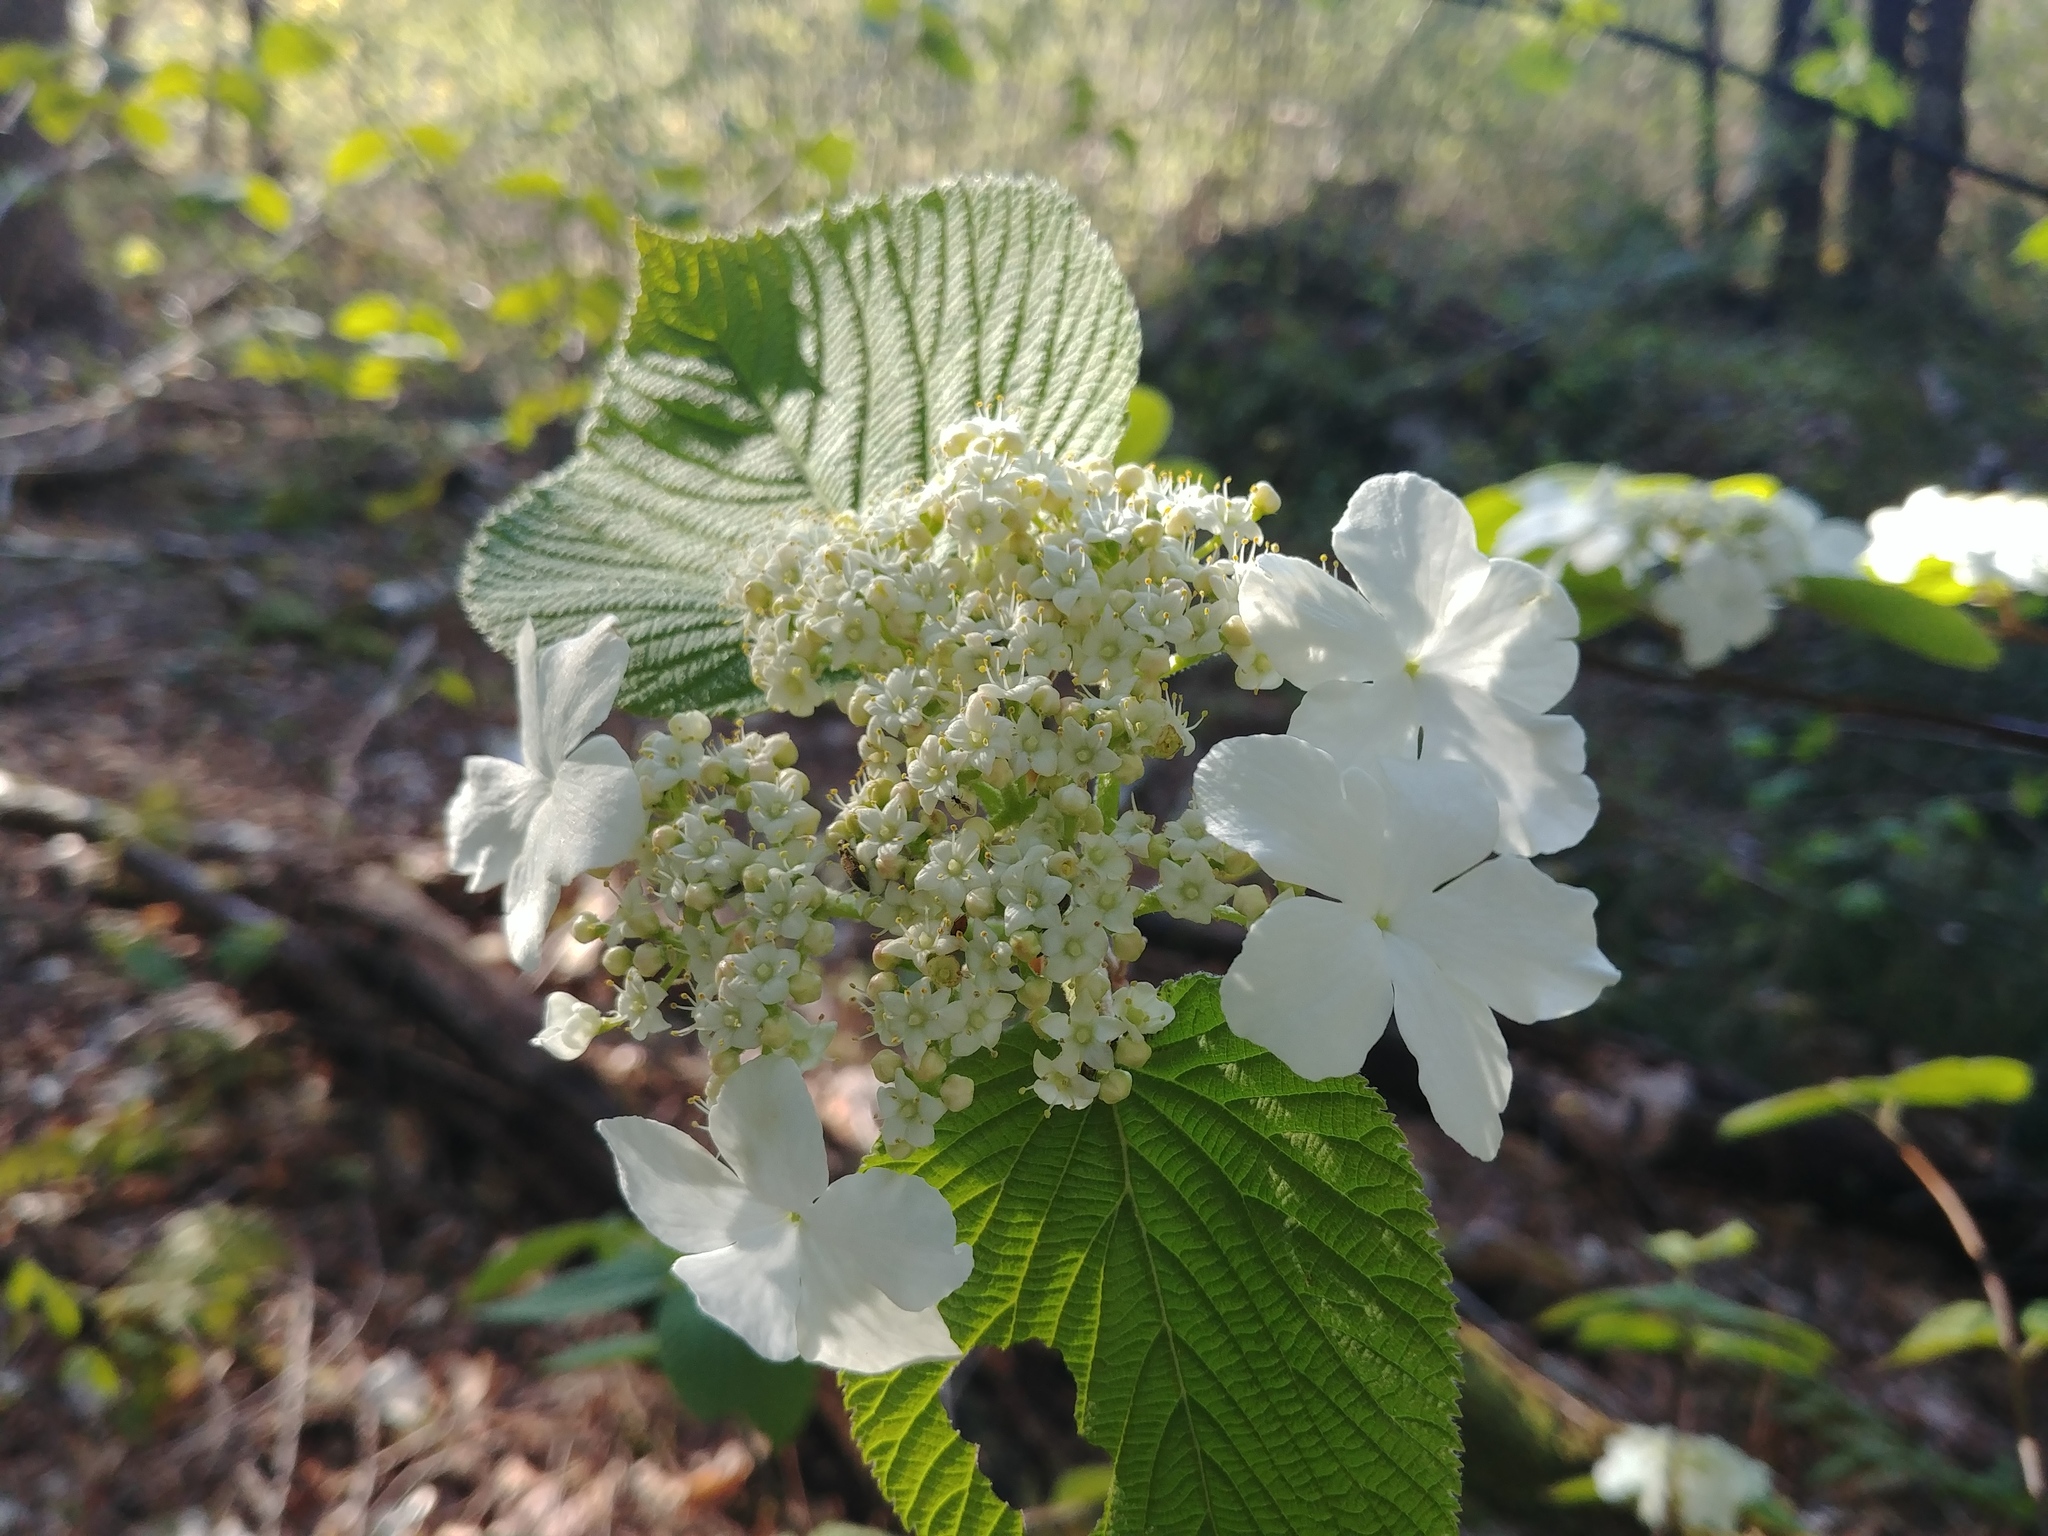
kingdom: Plantae
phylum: Tracheophyta
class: Magnoliopsida
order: Dipsacales
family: Viburnaceae
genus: Viburnum
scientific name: Viburnum lantanoides
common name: Hobblebush
